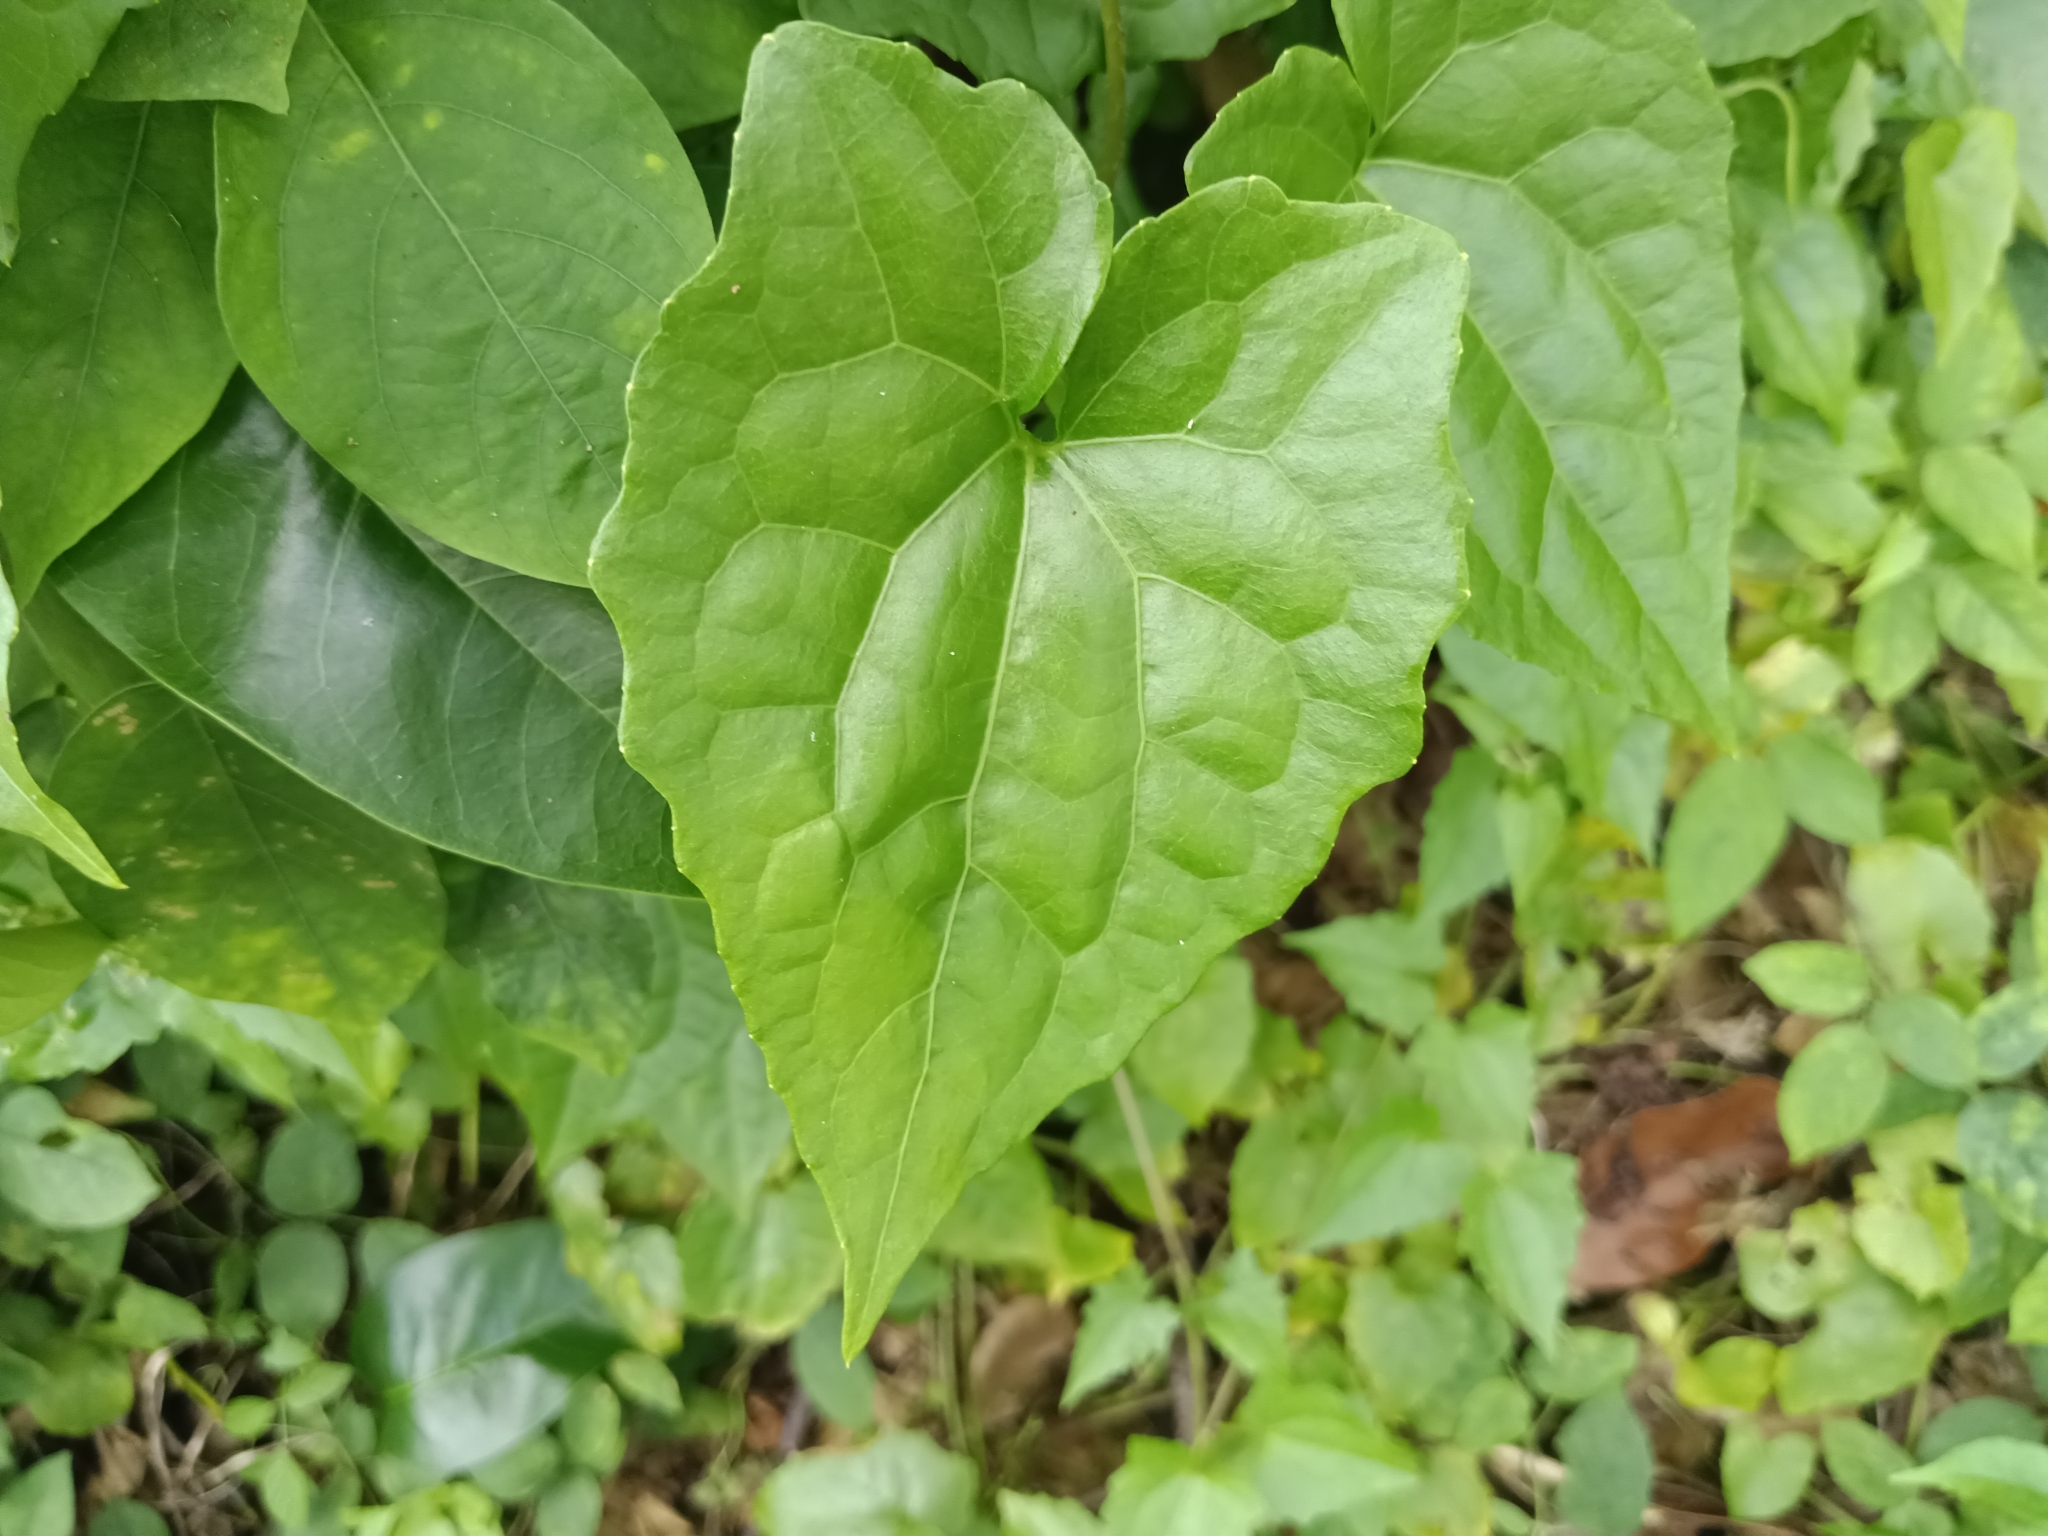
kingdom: Plantae
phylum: Tracheophyta
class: Magnoliopsida
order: Asterales
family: Asteraceae
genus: Mikania
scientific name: Mikania micrantha
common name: Mile-a-minute
